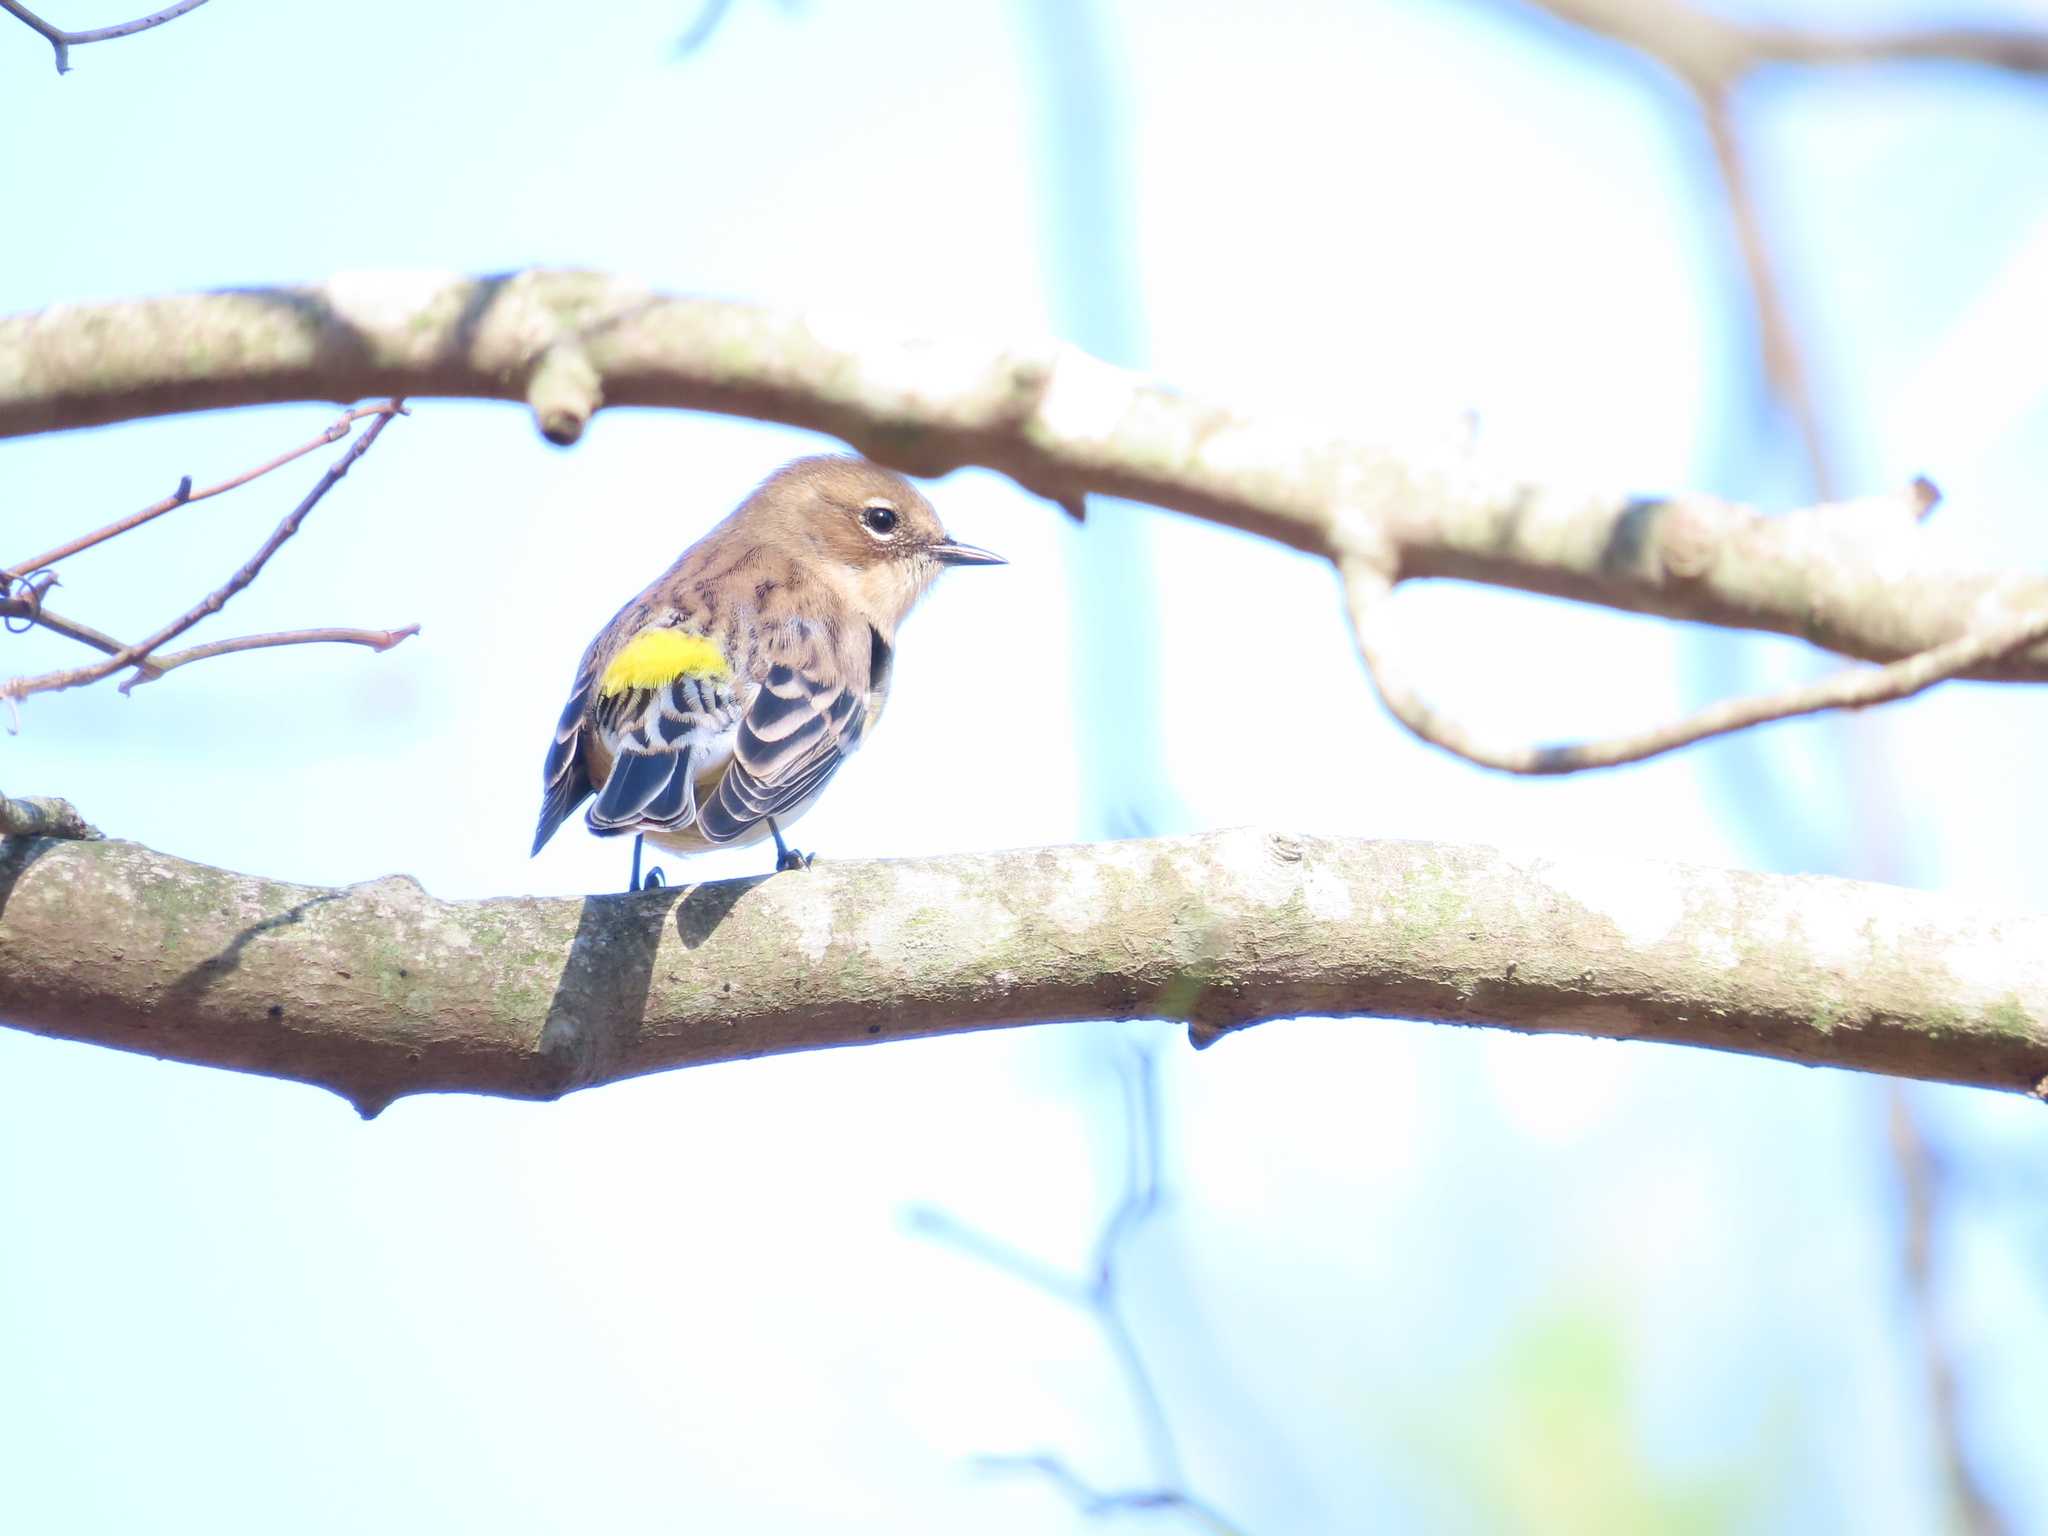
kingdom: Animalia
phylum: Chordata
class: Aves
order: Passeriformes
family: Parulidae
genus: Setophaga
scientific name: Setophaga coronata
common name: Myrtle warbler
